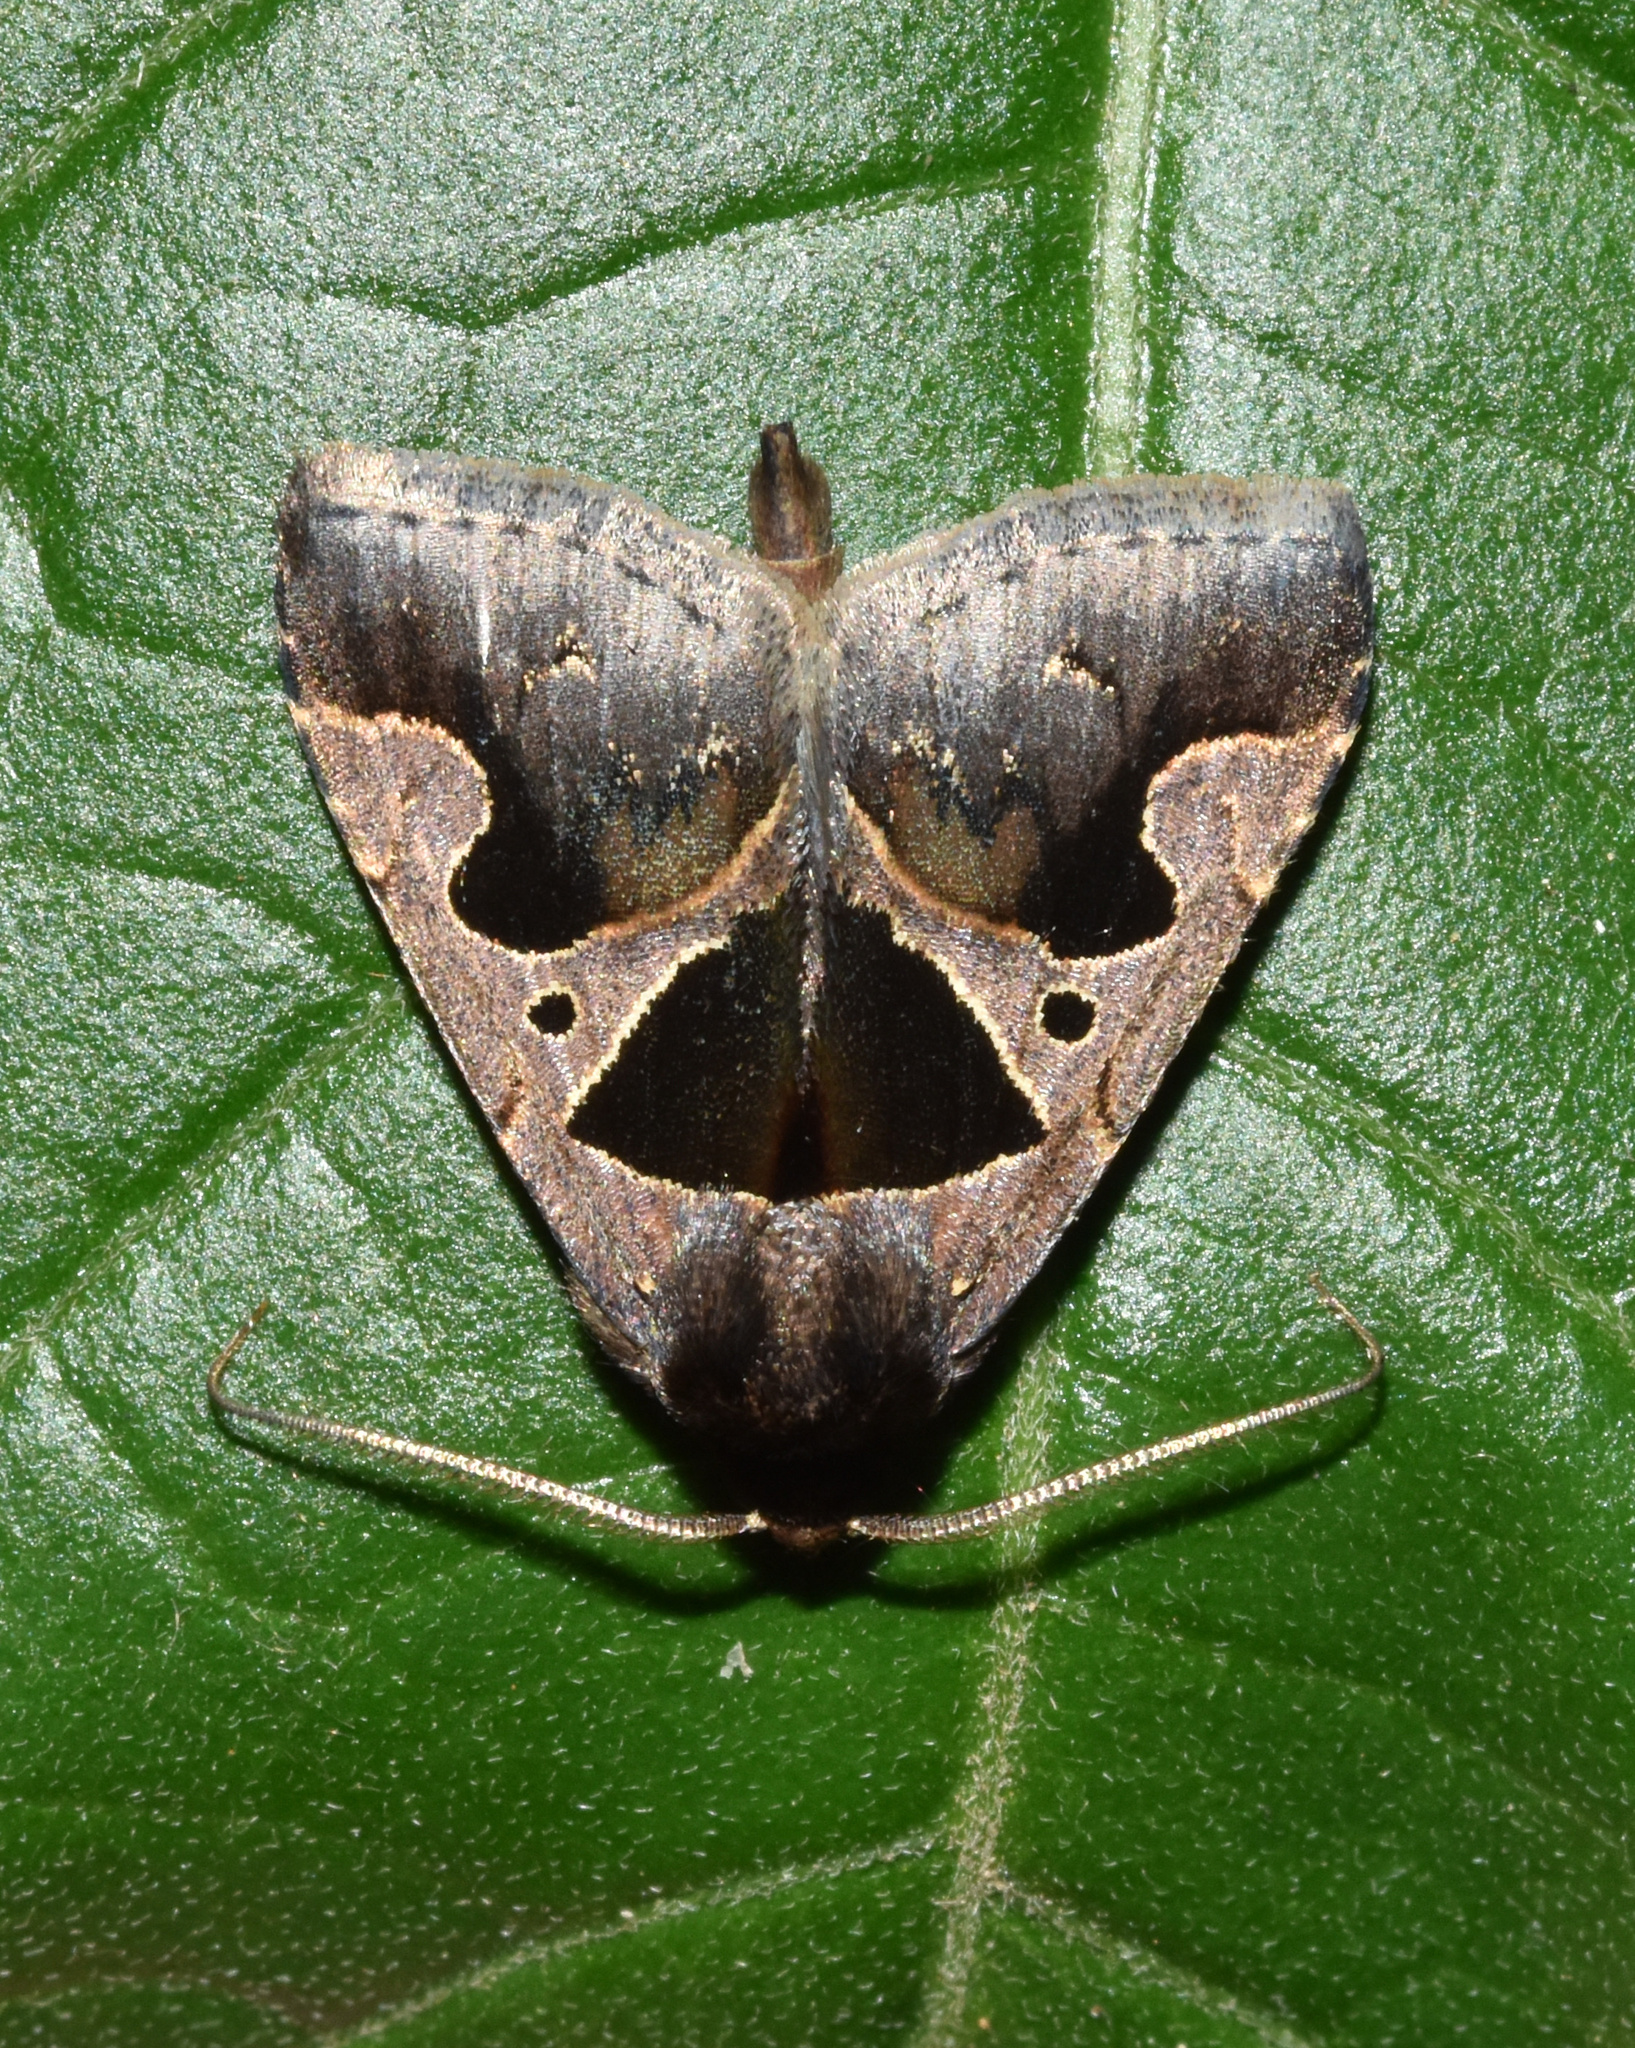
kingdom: Animalia
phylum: Arthropoda
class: Insecta
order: Lepidoptera
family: Erebidae
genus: Anoba
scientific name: Anoba disjuncta
